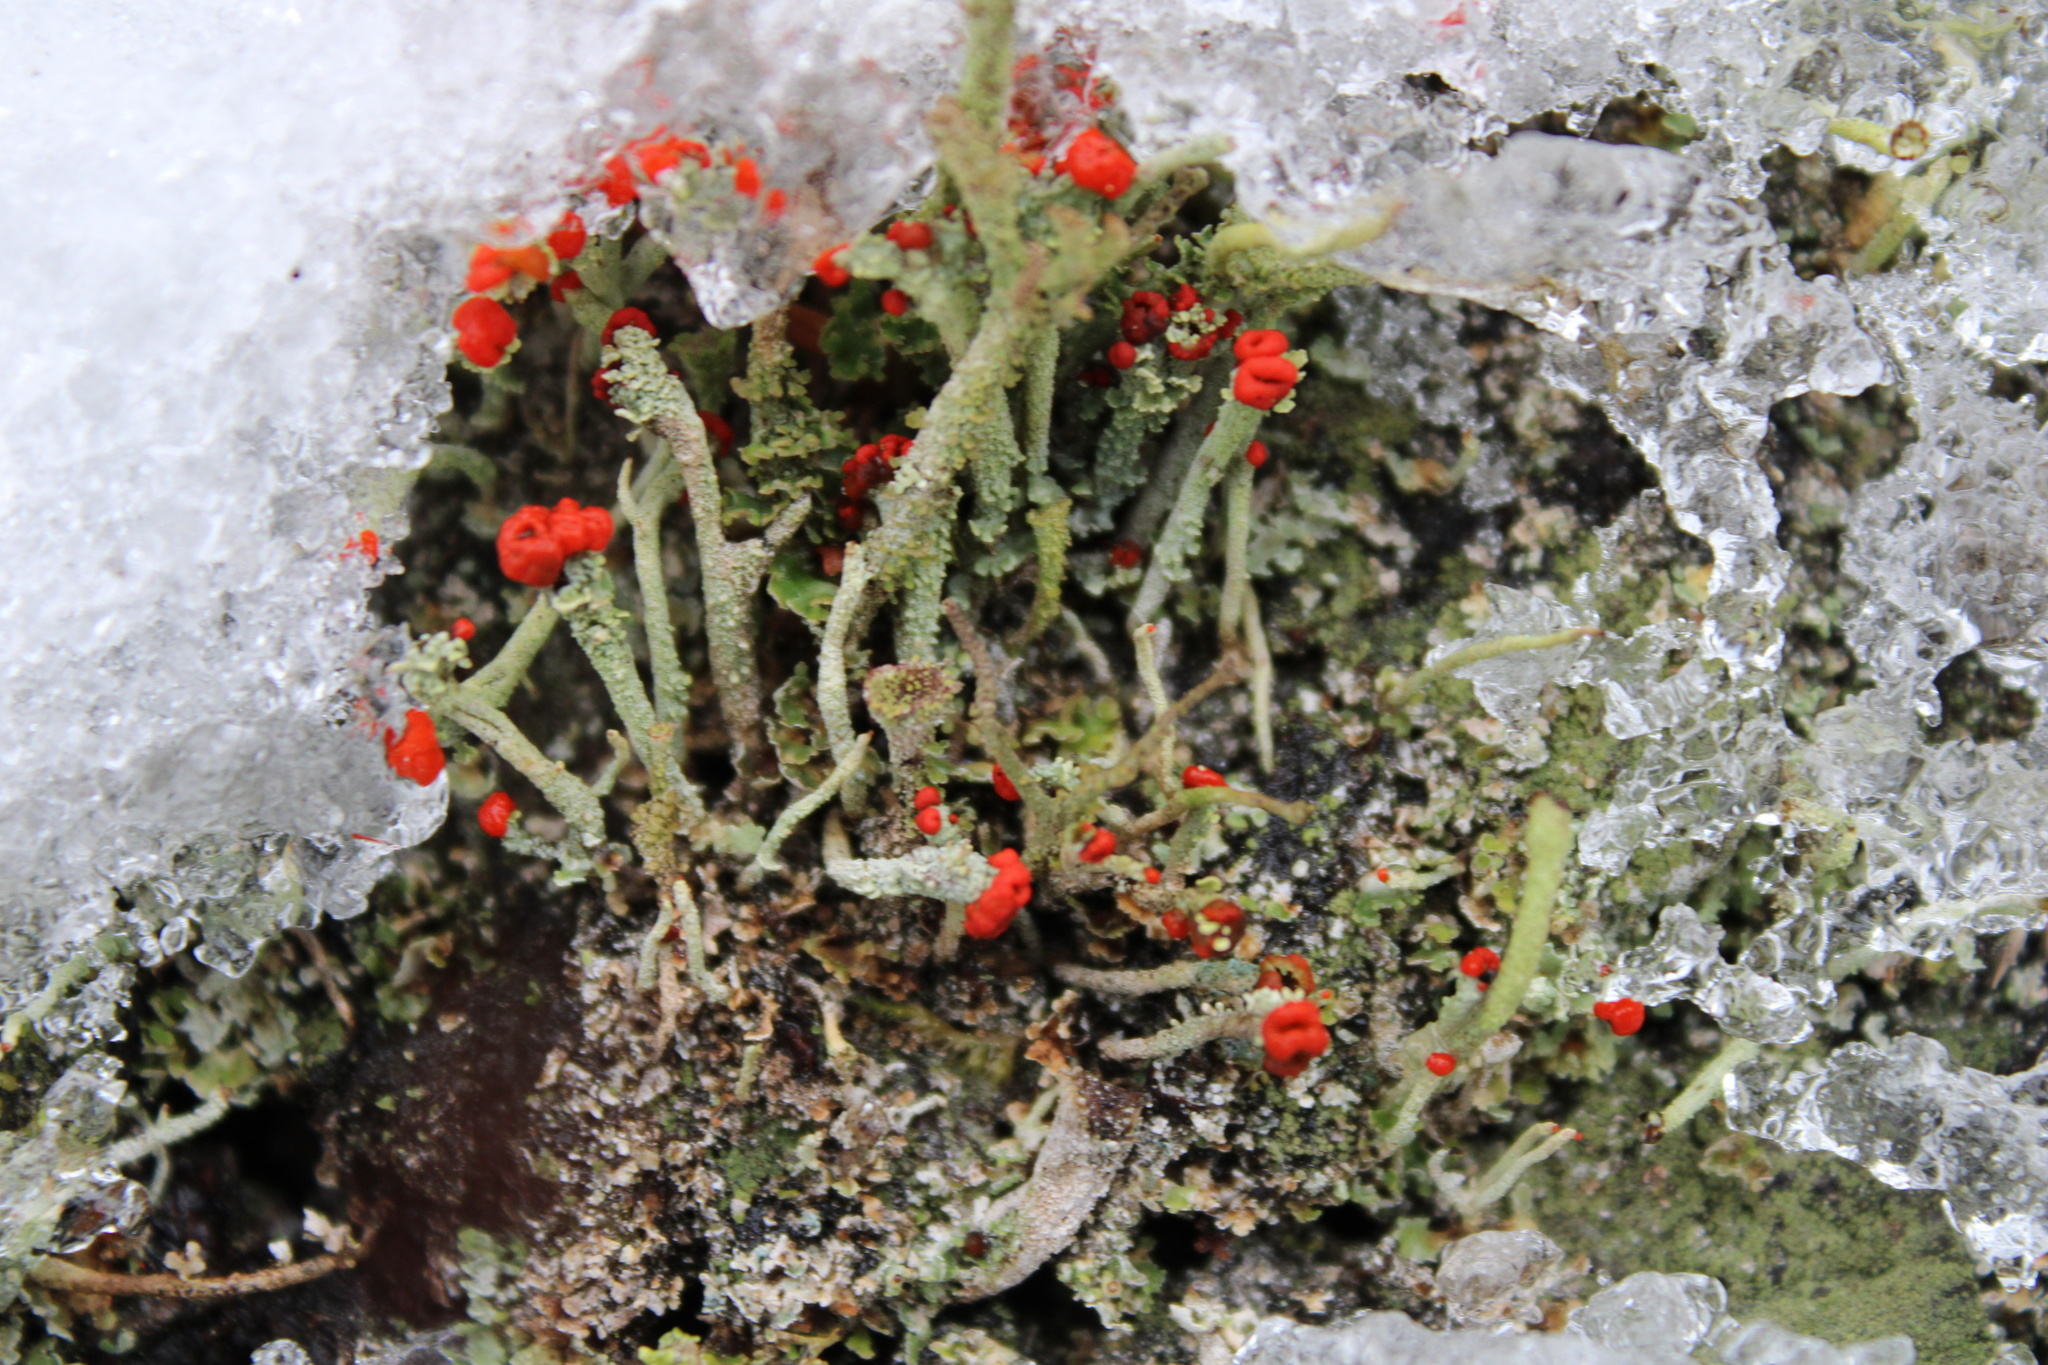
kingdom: Fungi
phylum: Ascomycota
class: Lecanoromycetes
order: Lecanorales
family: Cladoniaceae
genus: Cladonia
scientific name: Cladonia macilenta
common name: Lipstick powderhorn
